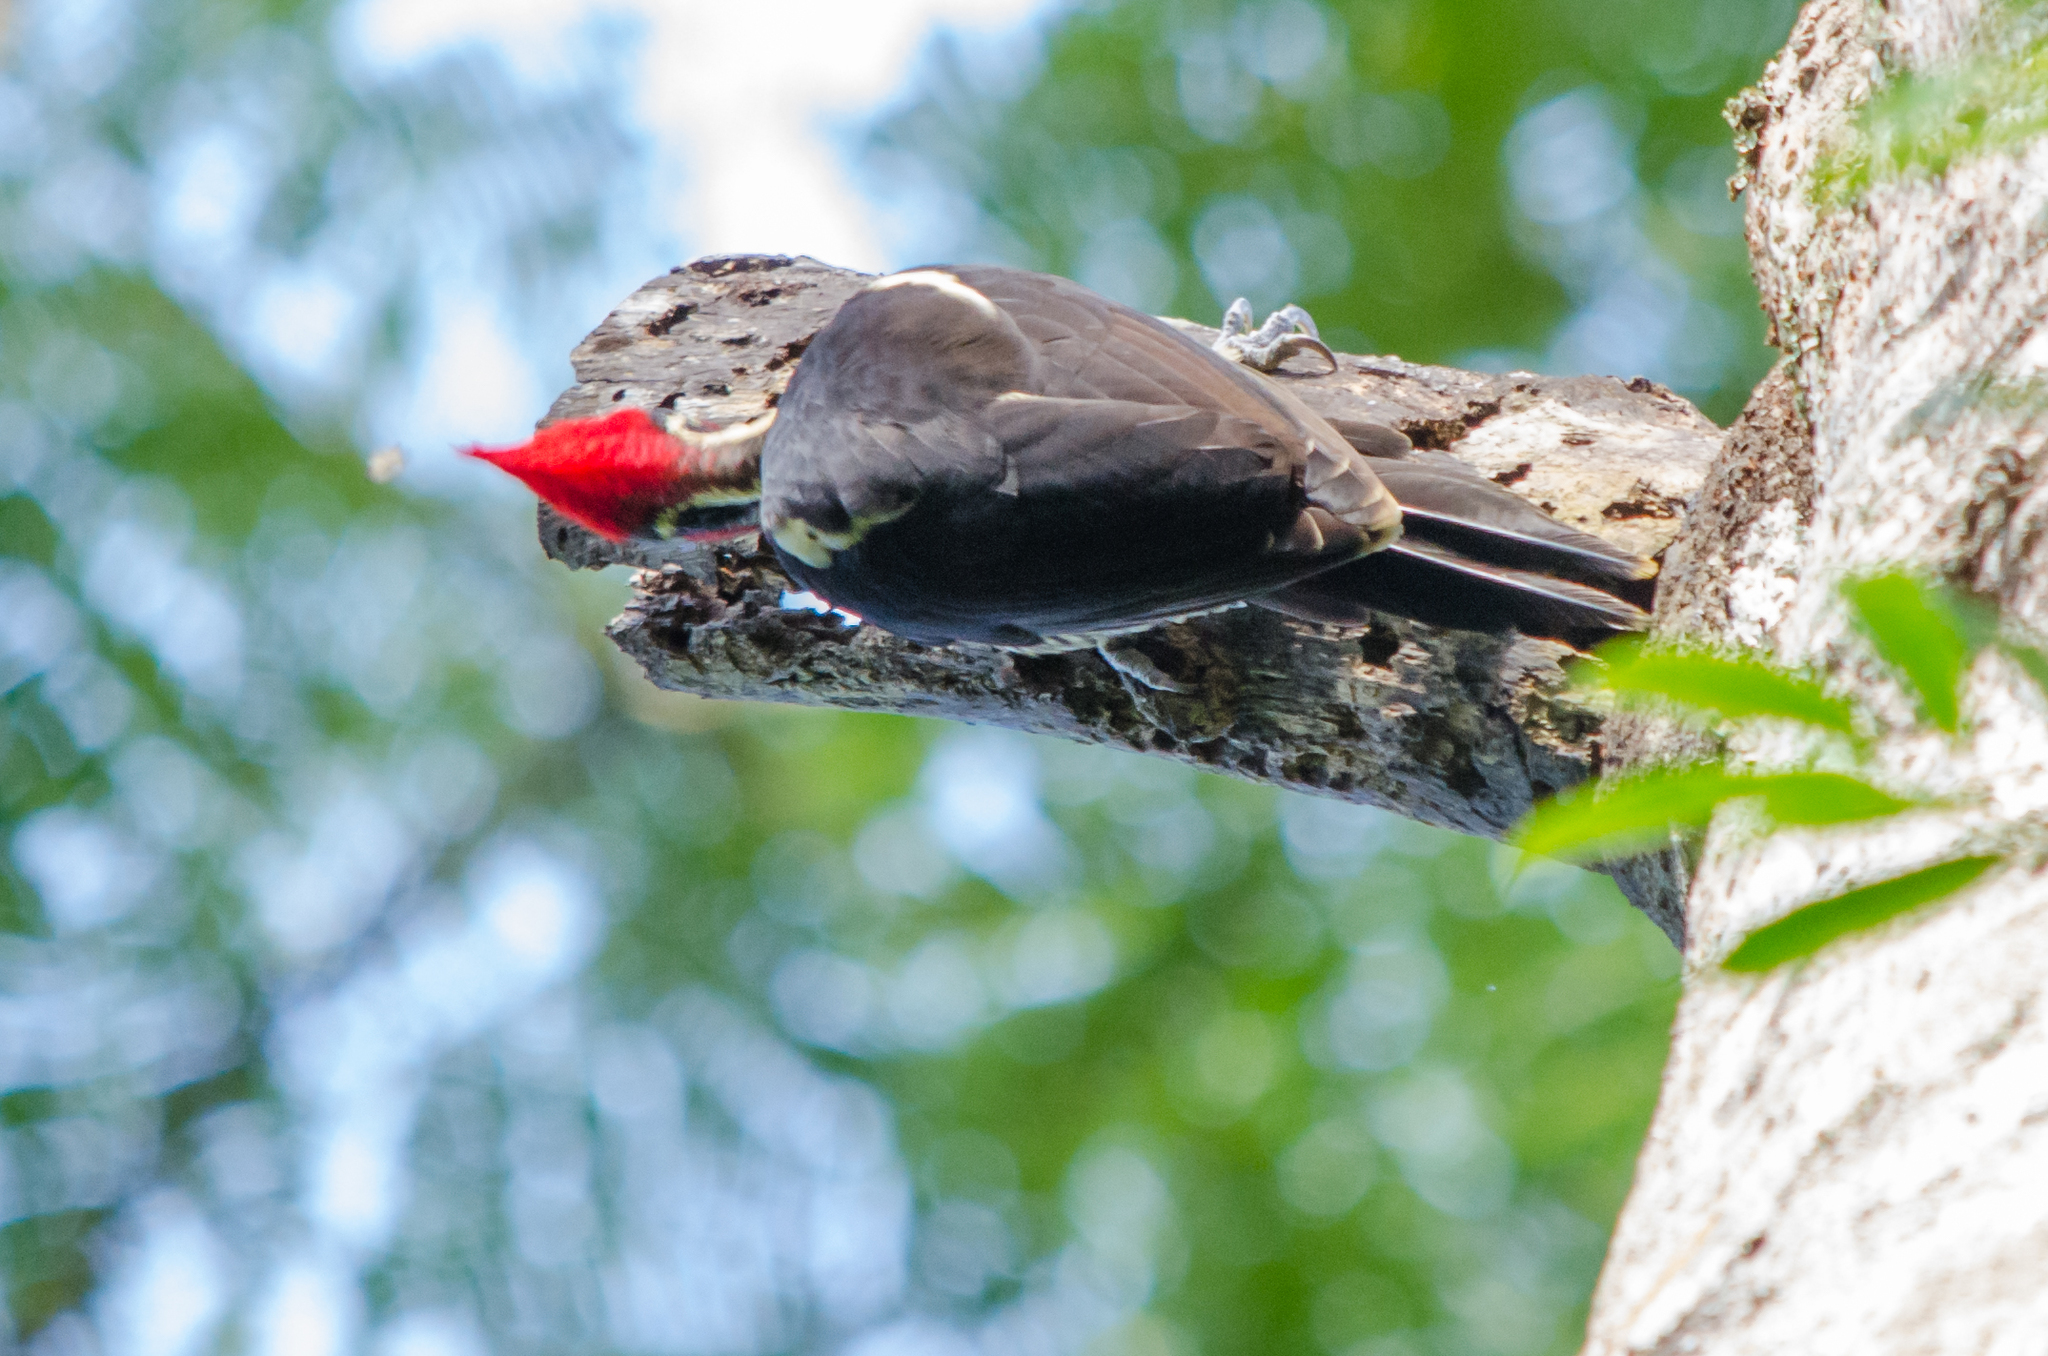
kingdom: Animalia
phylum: Chordata
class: Aves
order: Piciformes
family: Picidae
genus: Dryocopus
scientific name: Dryocopus lineatus
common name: Lineated woodpecker
